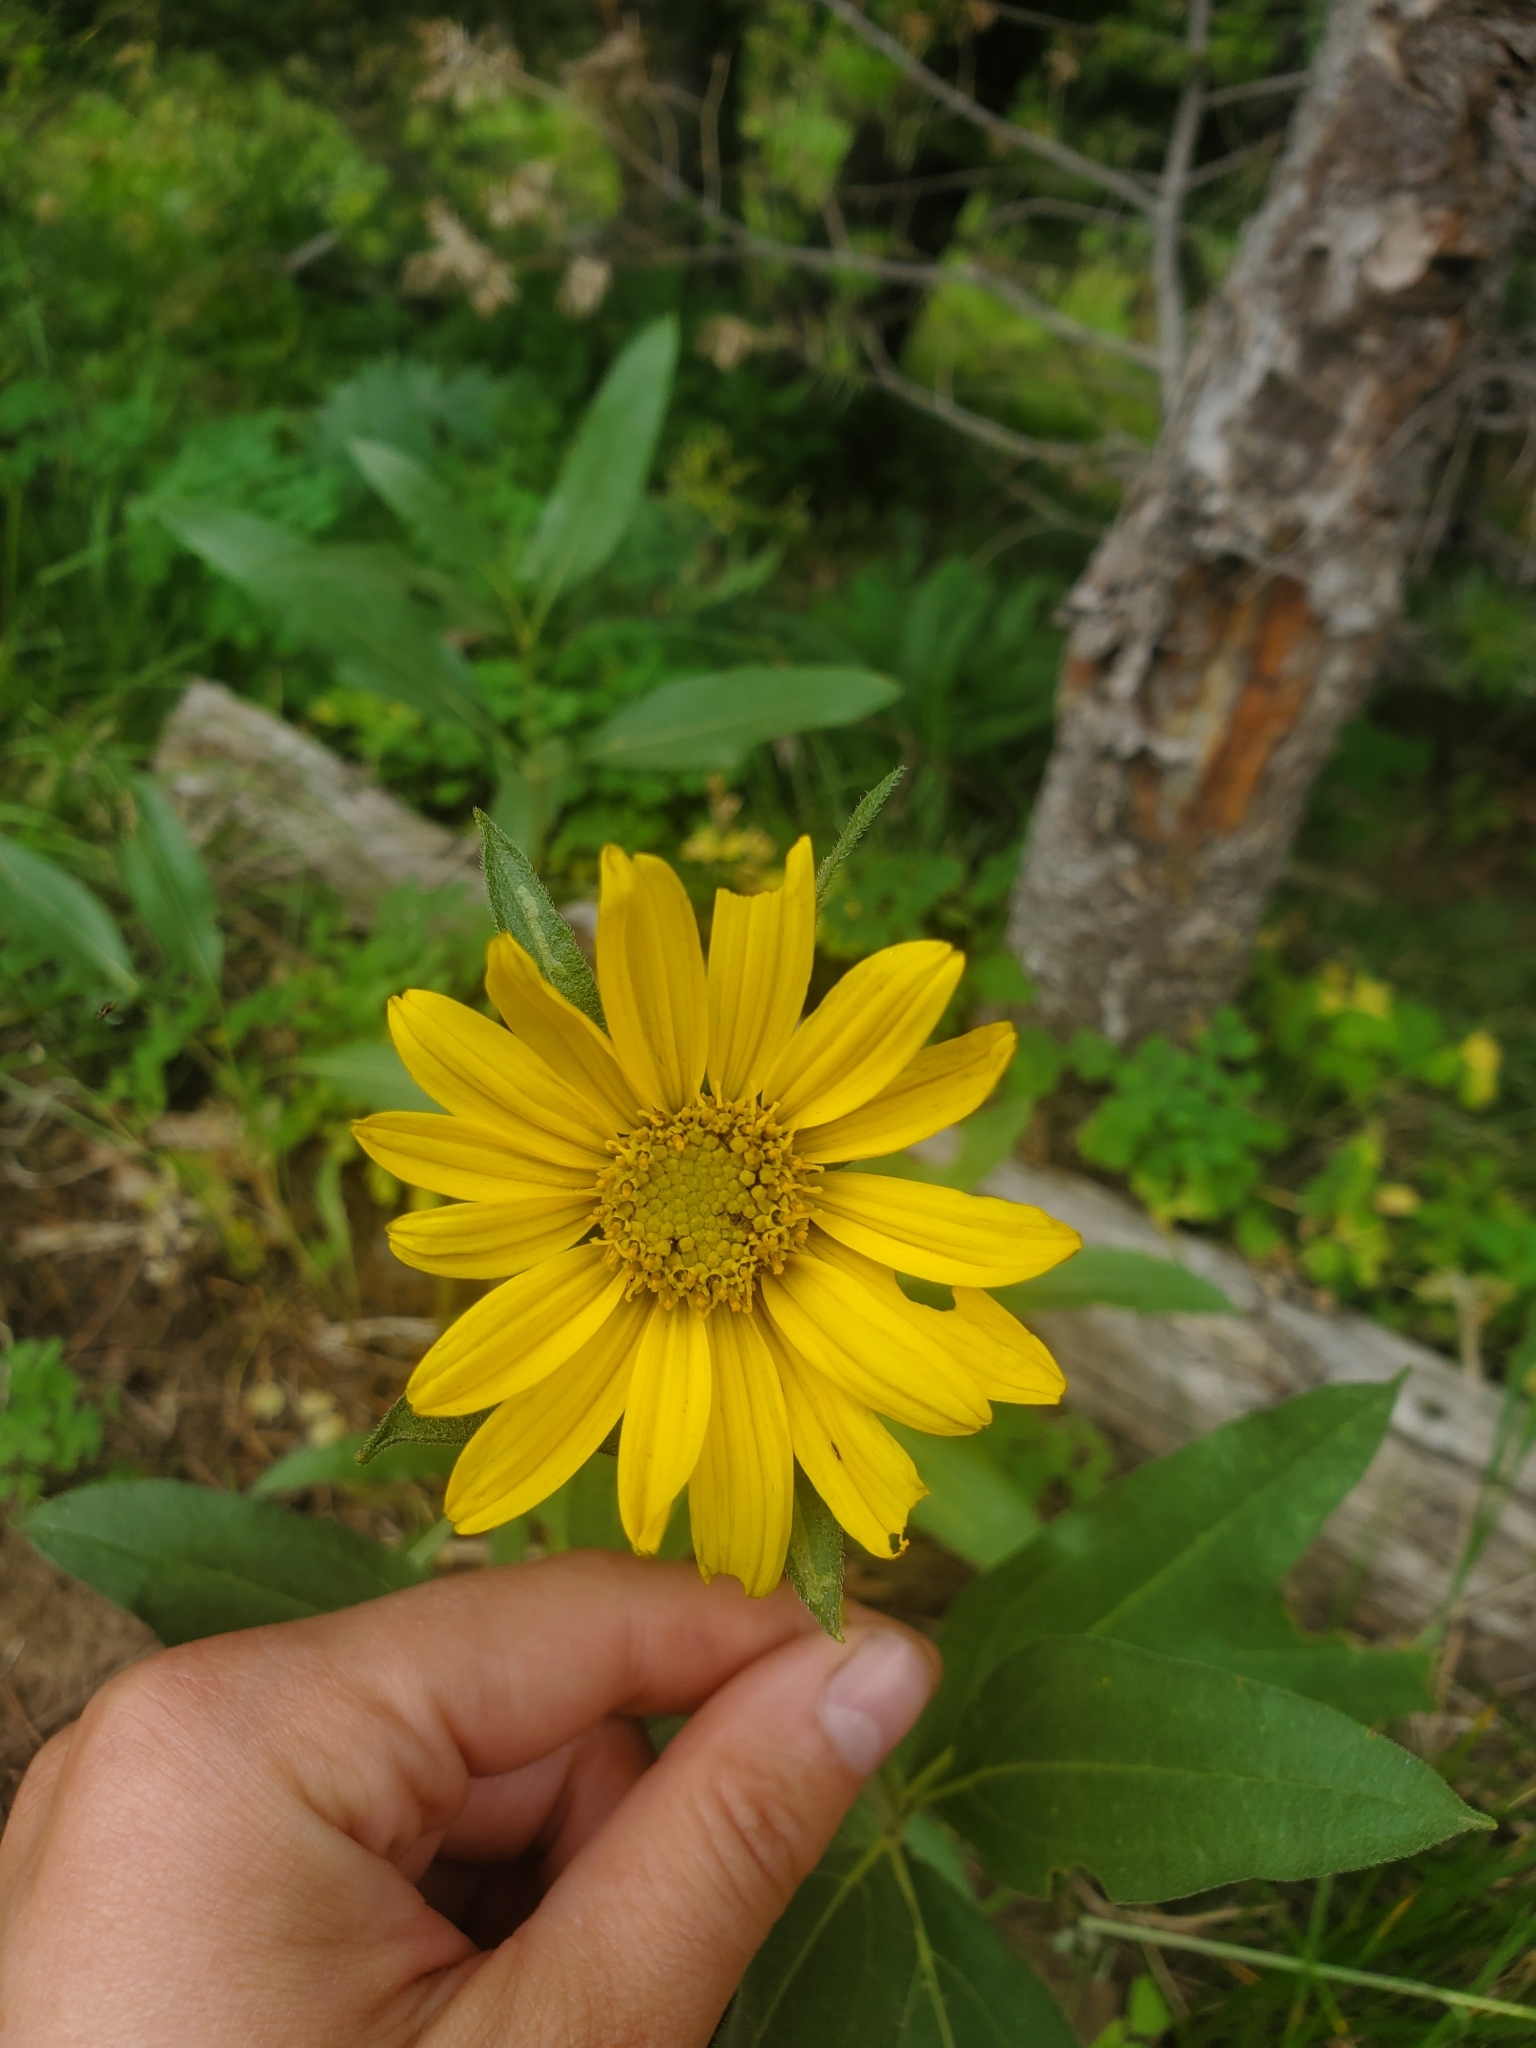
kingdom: Plantae
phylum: Tracheophyta
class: Magnoliopsida
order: Asterales
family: Asteraceae
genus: Helianthella
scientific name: Helianthella uniflora
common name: Rocky mountain dwarf sunflower
